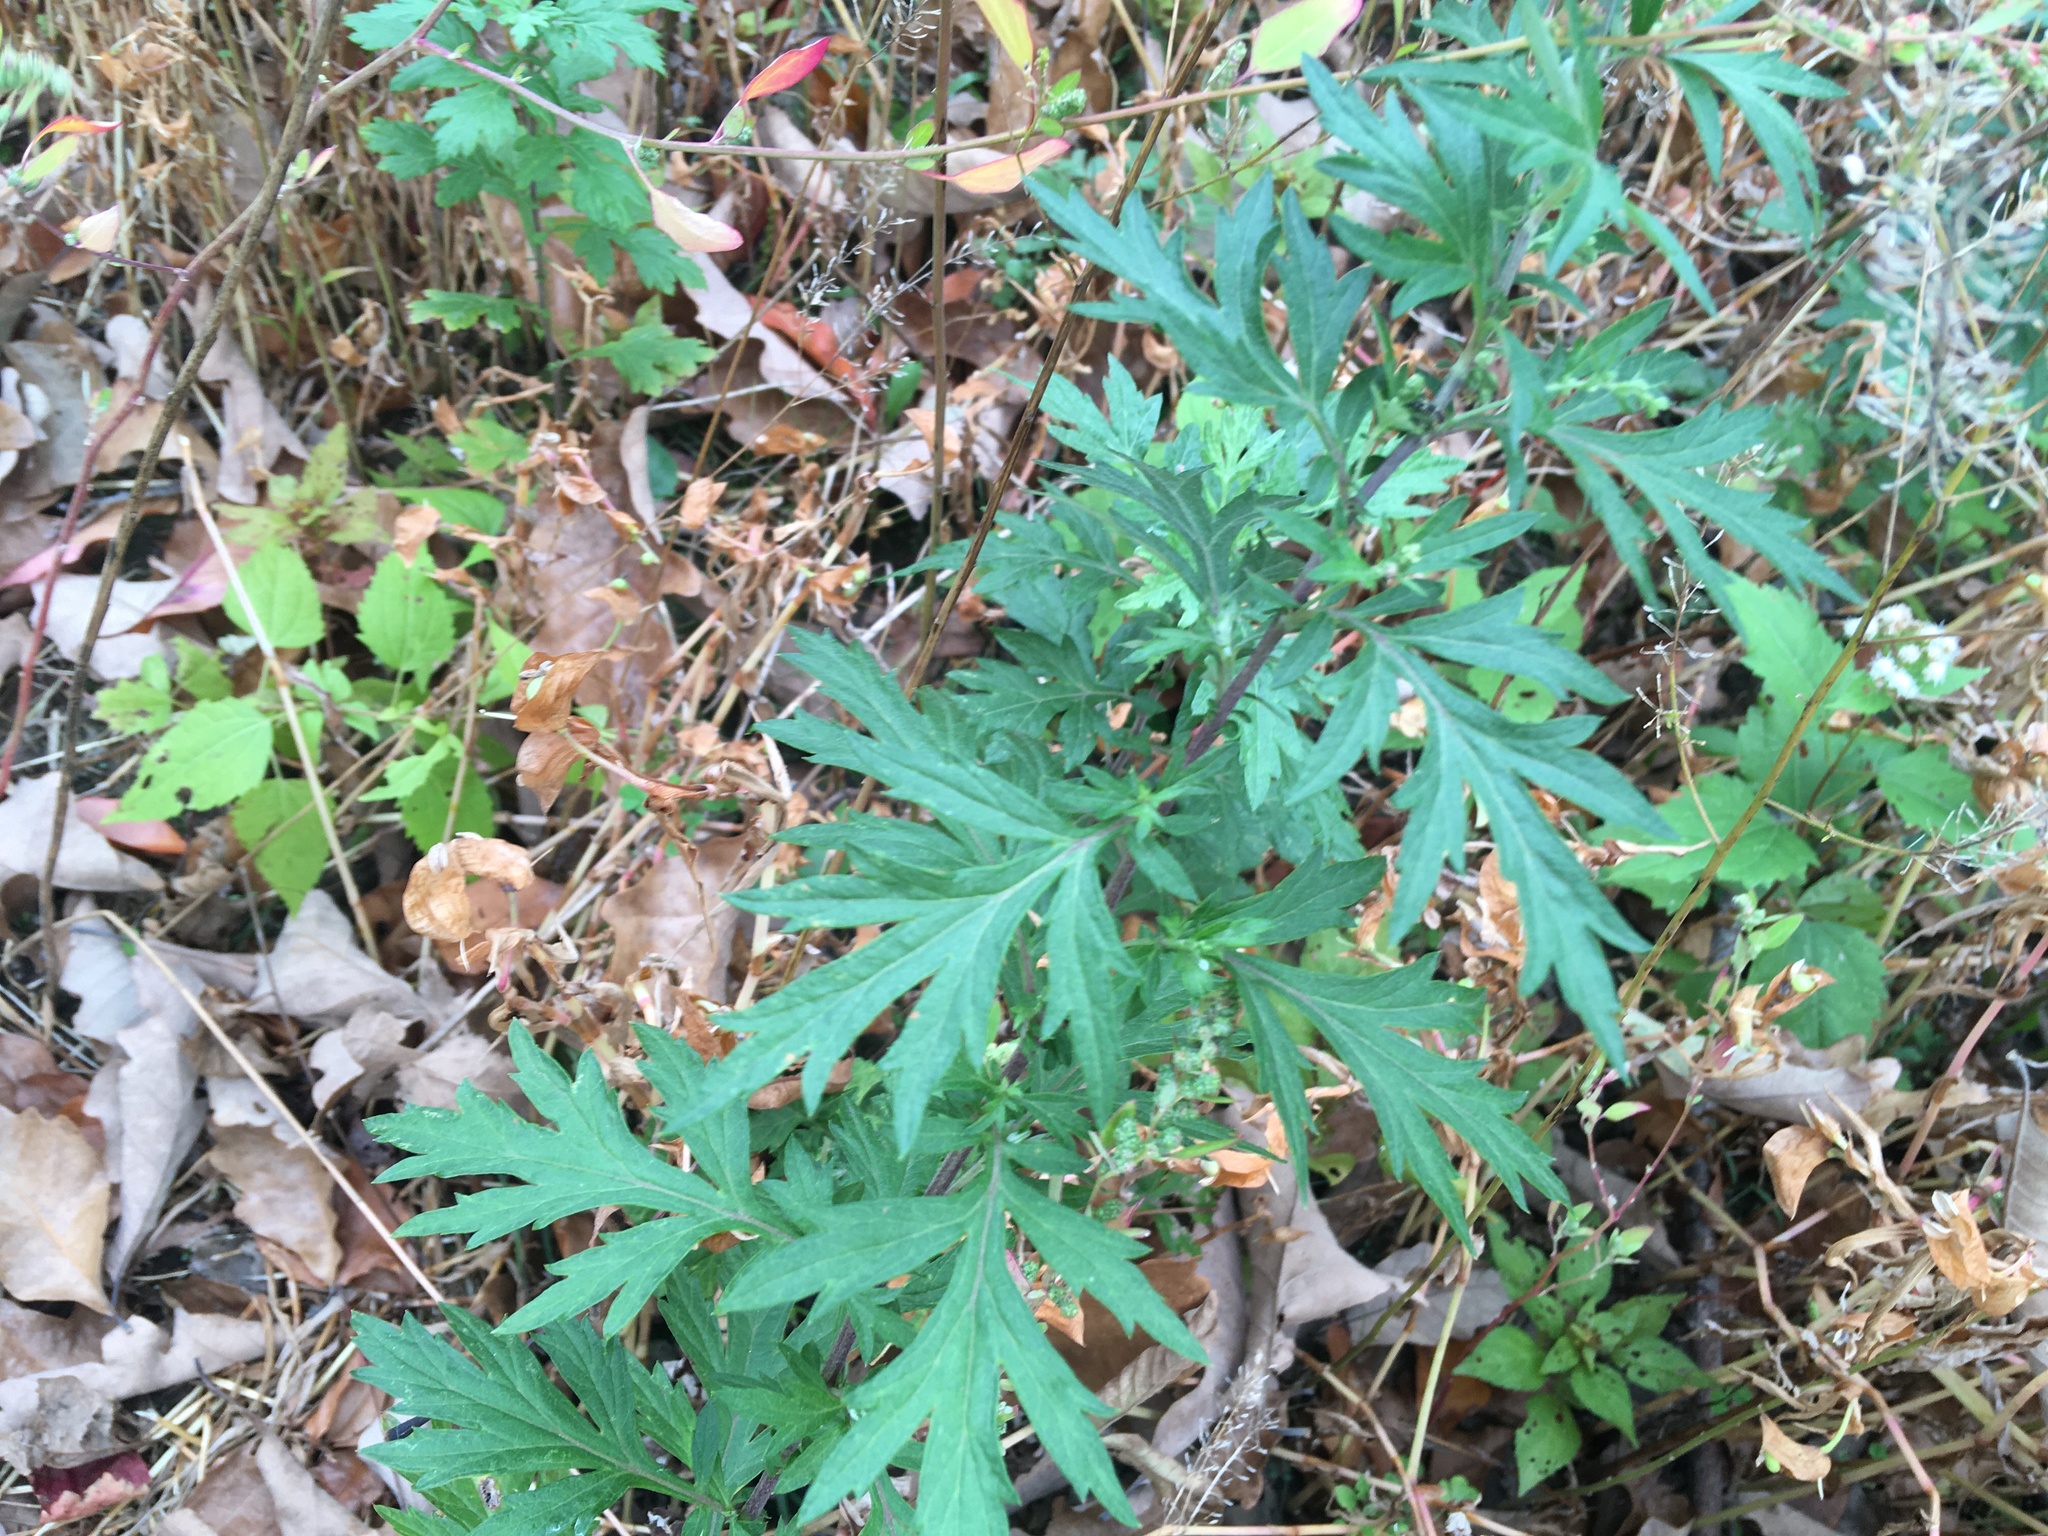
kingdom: Plantae
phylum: Tracheophyta
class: Magnoliopsida
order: Asterales
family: Asteraceae
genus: Artemisia
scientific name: Artemisia vulgaris
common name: Mugwort
